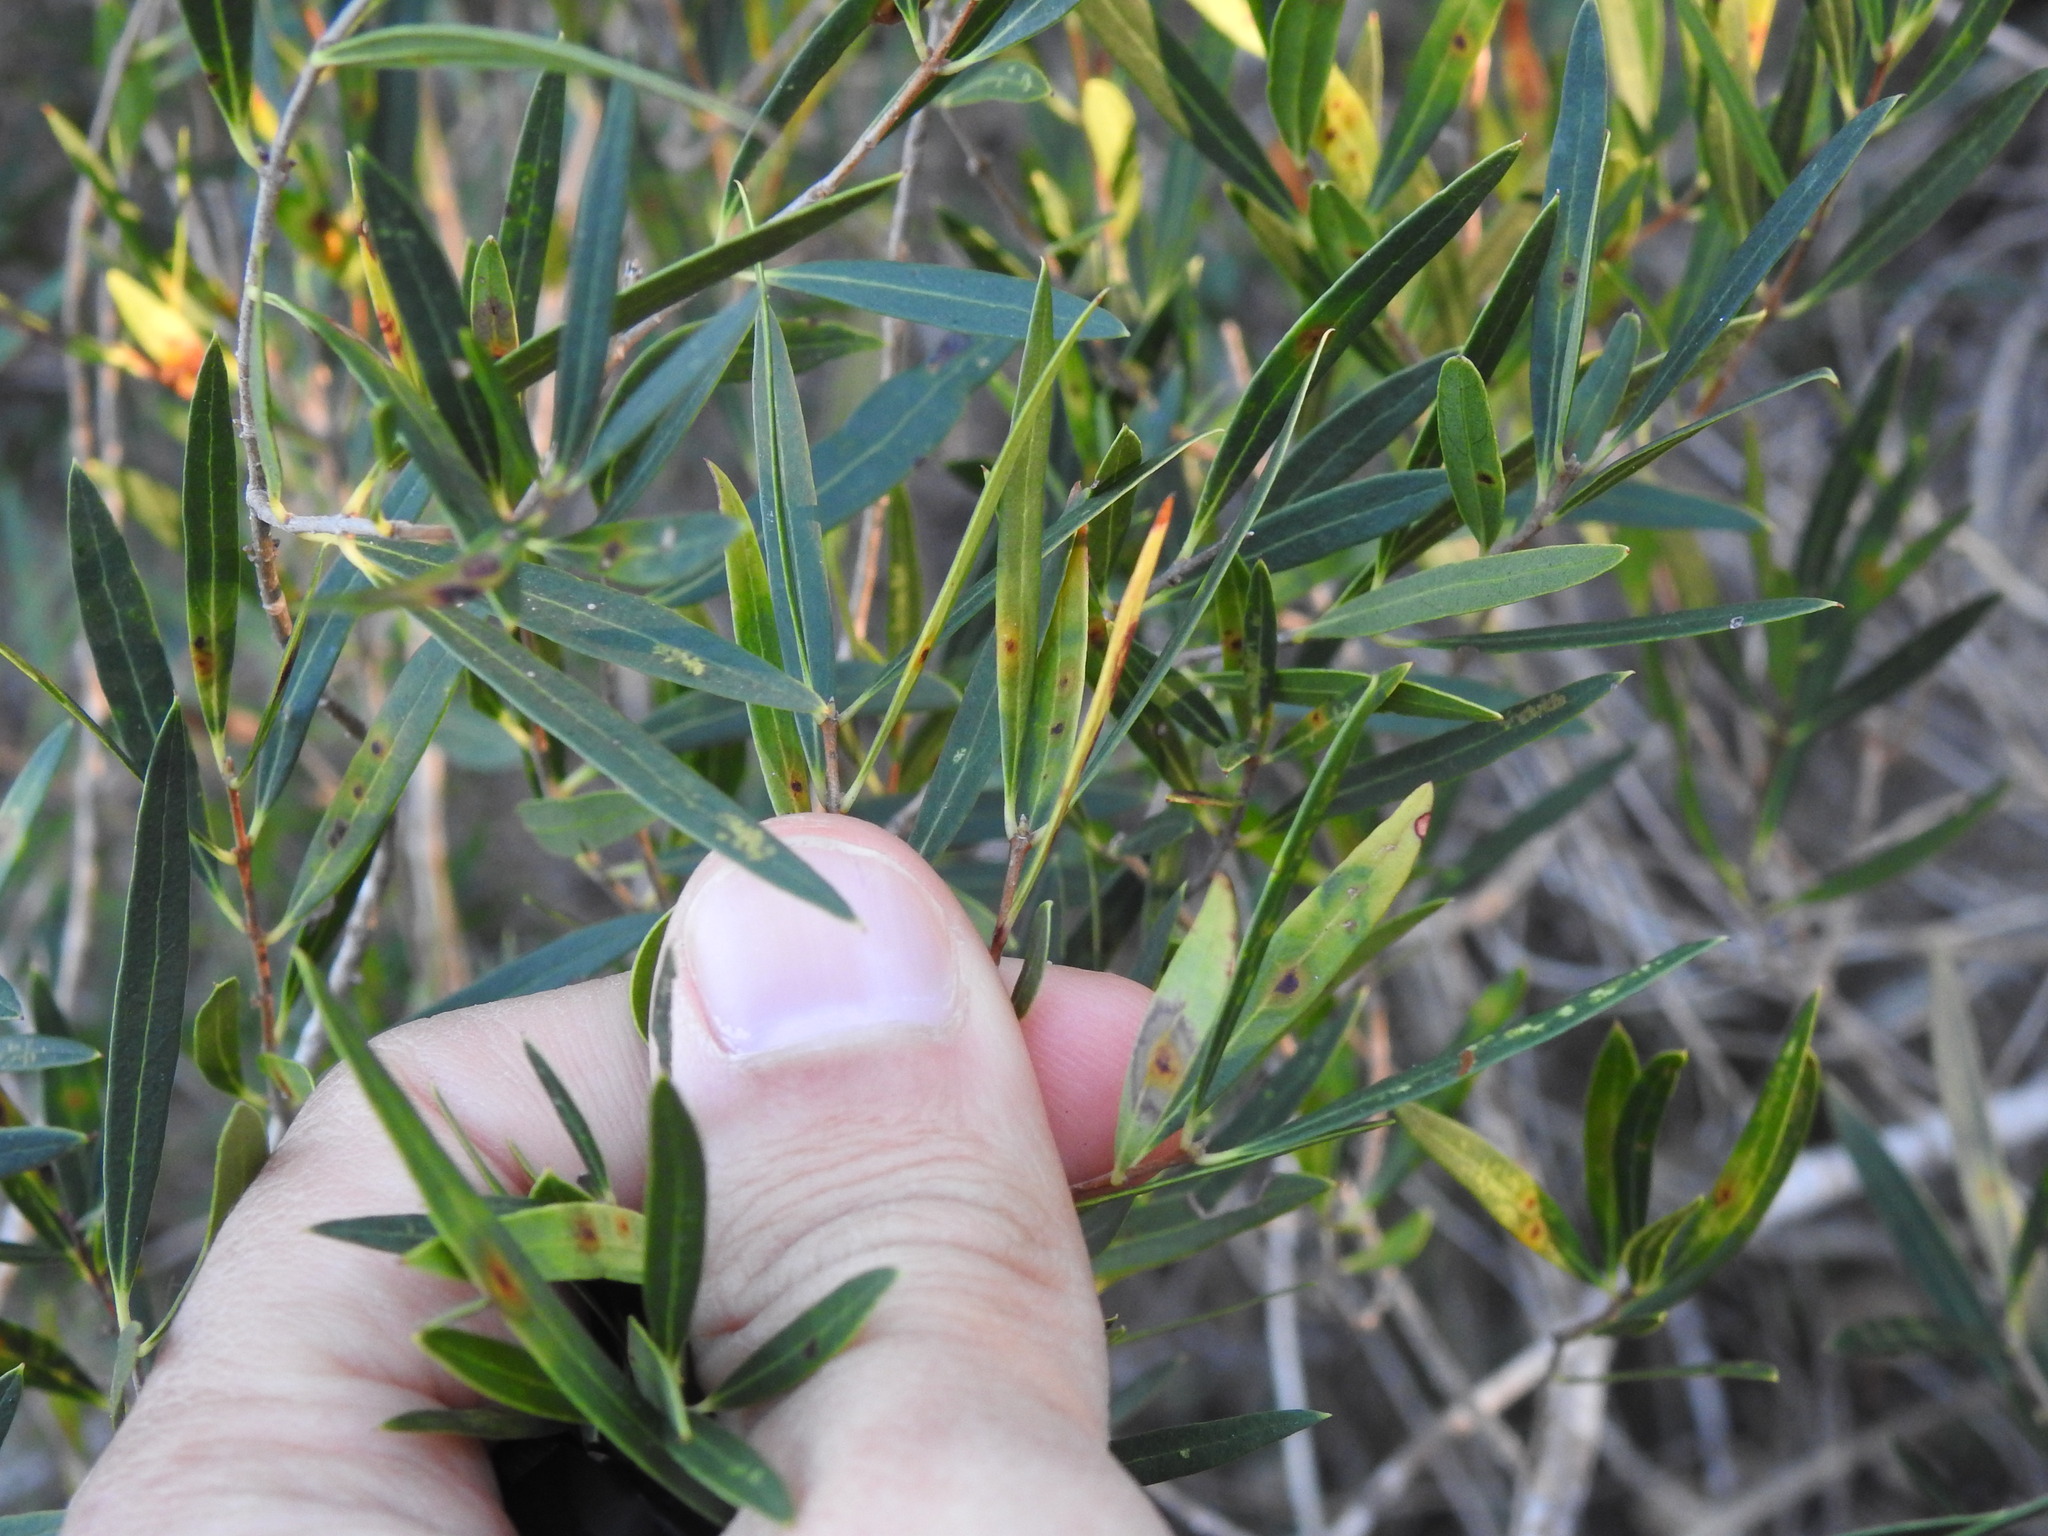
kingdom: Animalia
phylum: Arthropoda
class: Insecta
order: Diptera
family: Cecidomyiidae
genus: Braueriella
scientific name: Braueriella phillyreae
